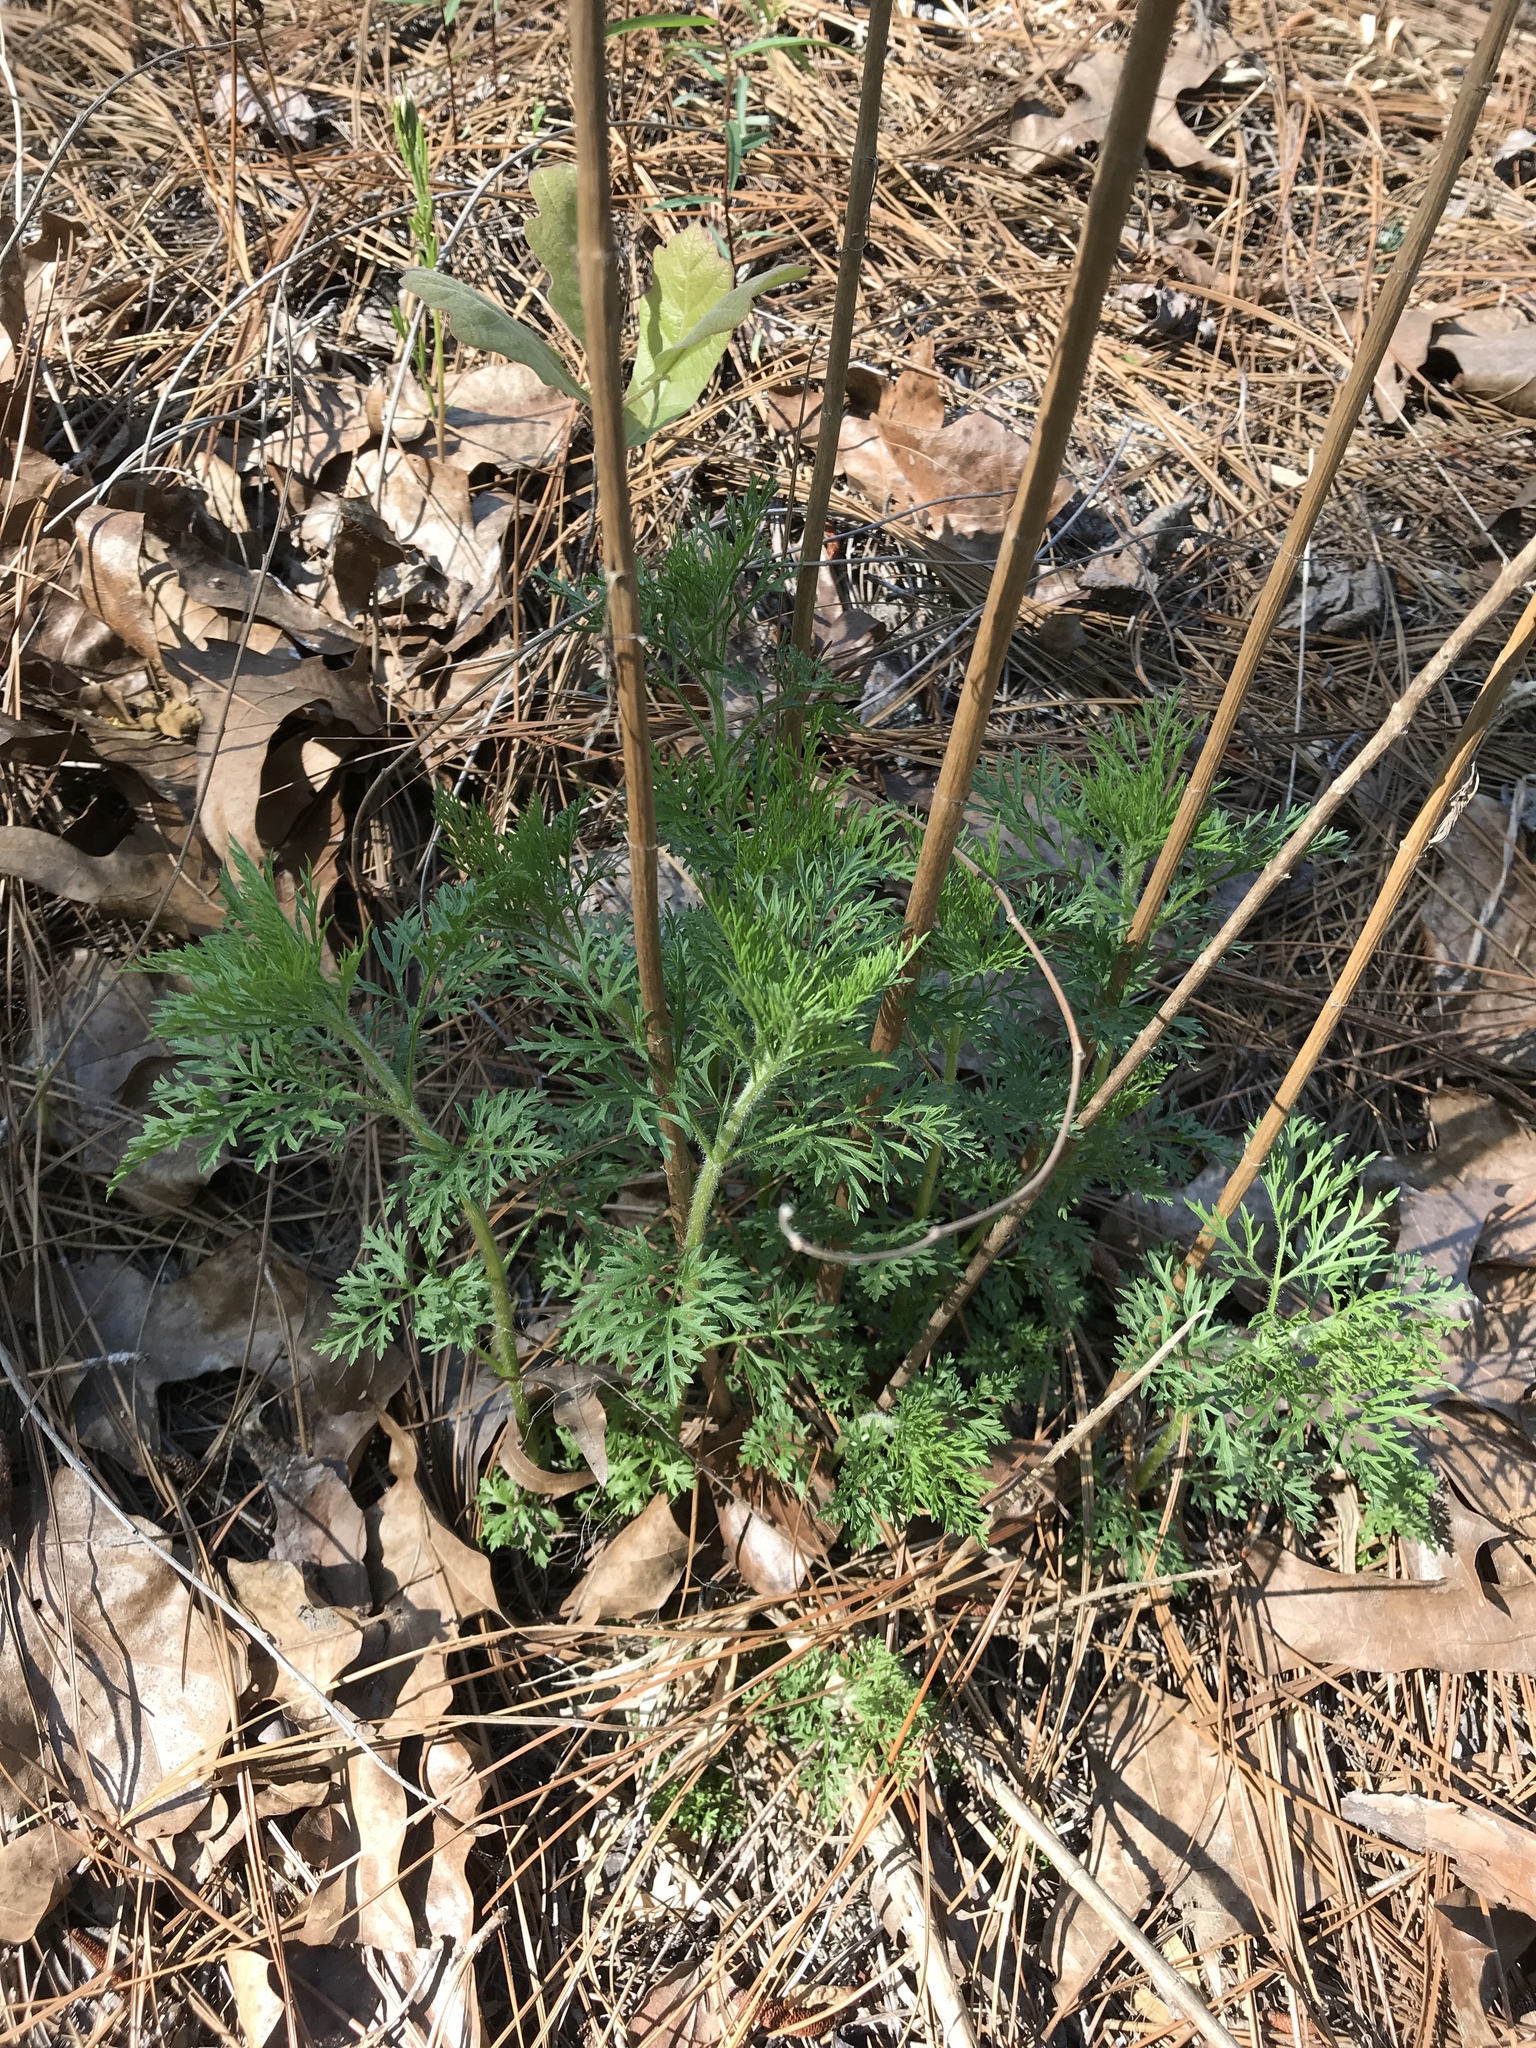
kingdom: Plantae
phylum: Tracheophyta
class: Magnoliopsida
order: Asterales
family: Asteraceae
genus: Eupatorium
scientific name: Eupatorium compositifolium
